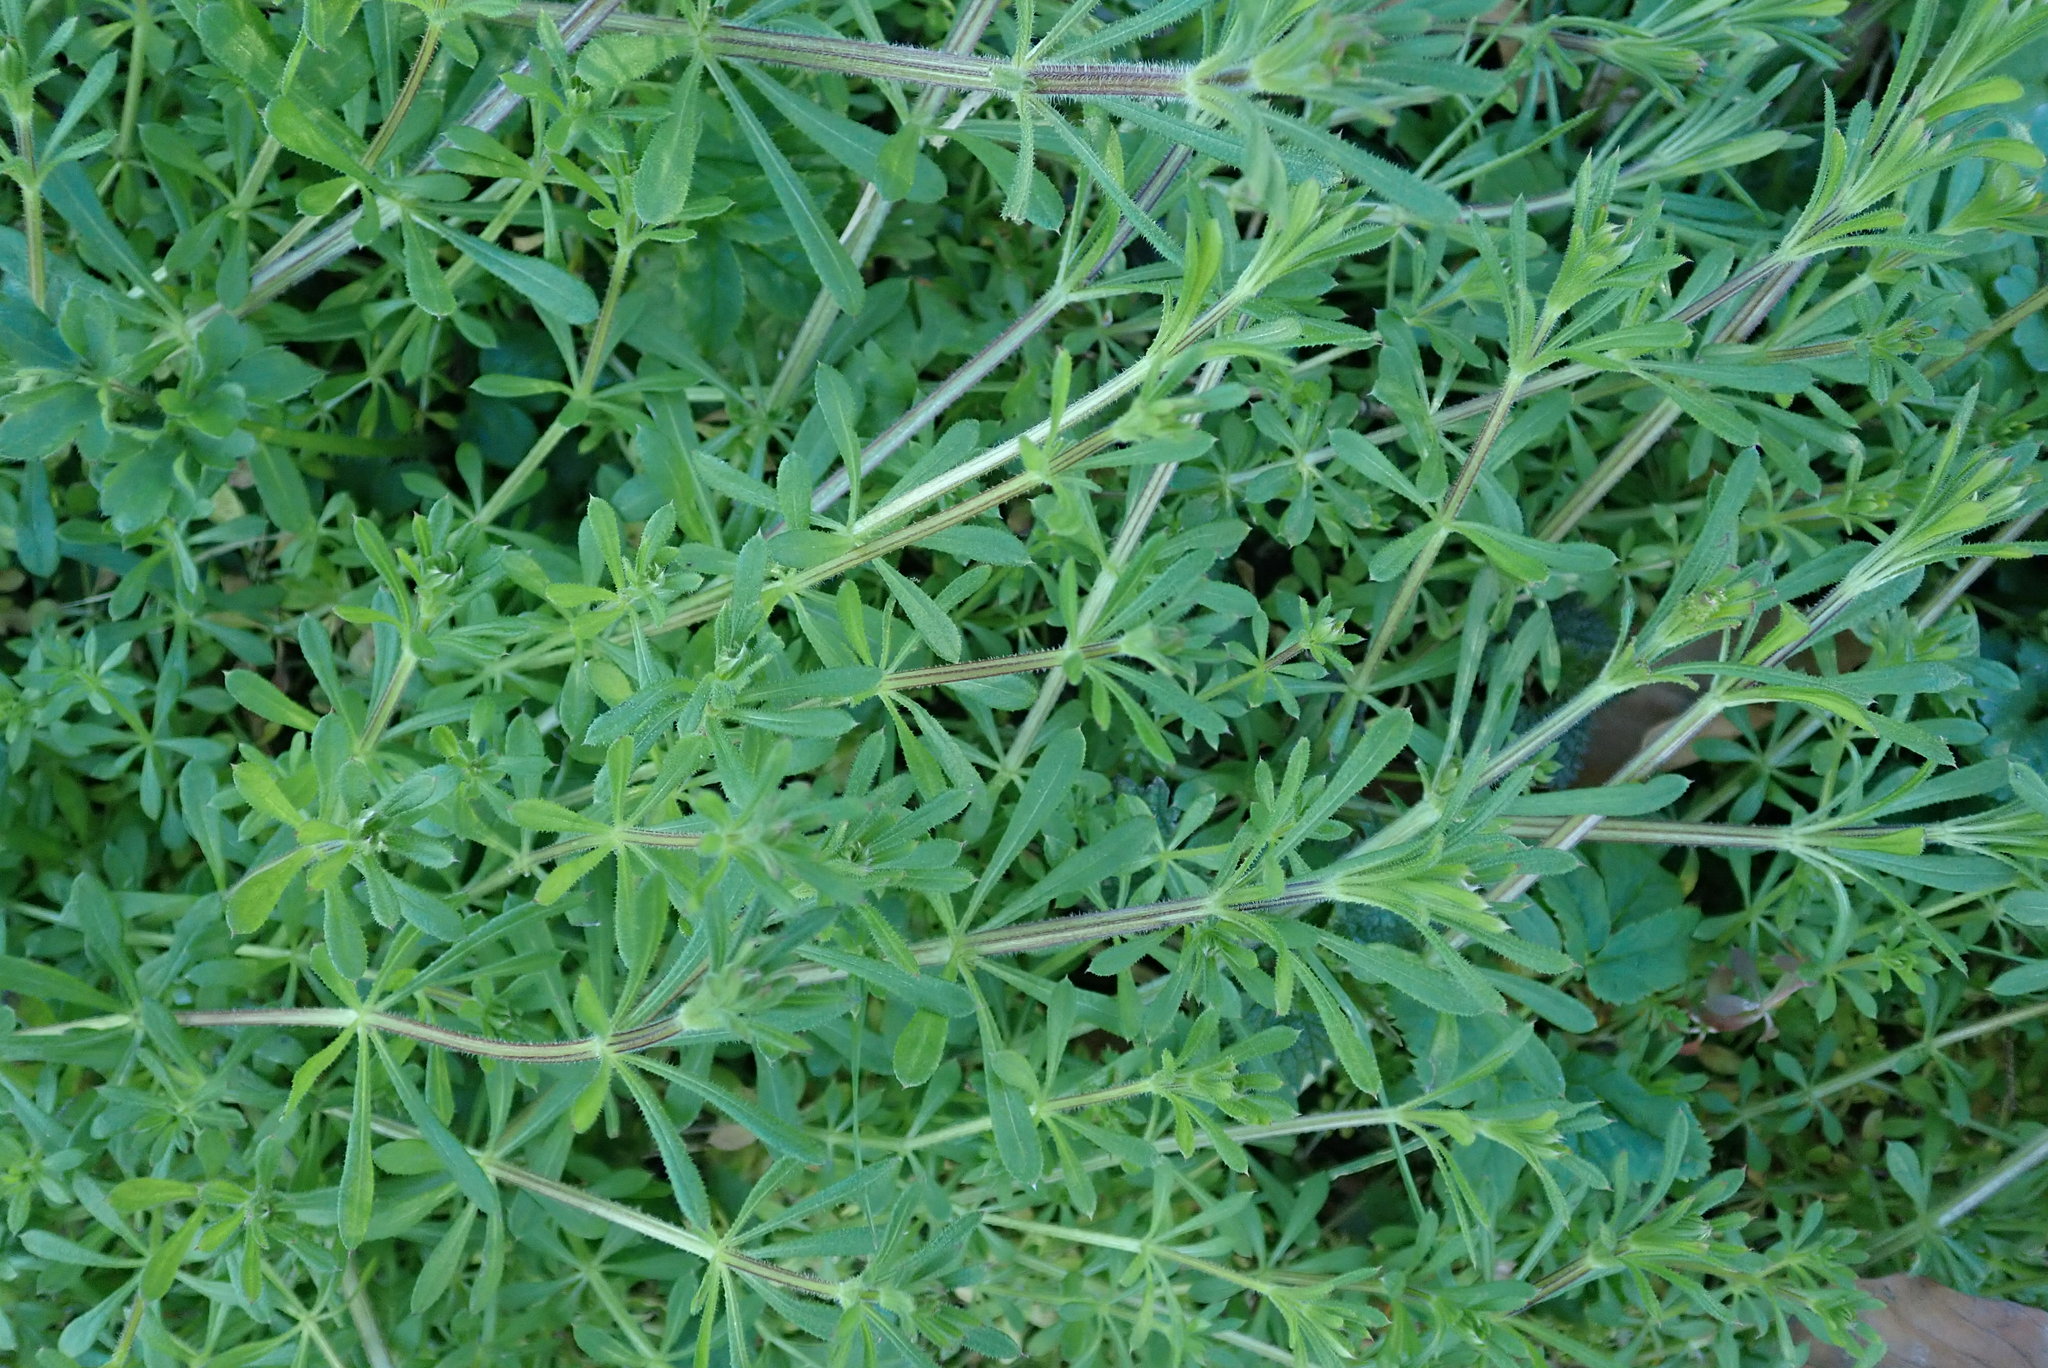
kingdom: Plantae
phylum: Tracheophyta
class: Magnoliopsida
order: Gentianales
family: Rubiaceae
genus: Galium
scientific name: Galium aparine
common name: Cleavers
